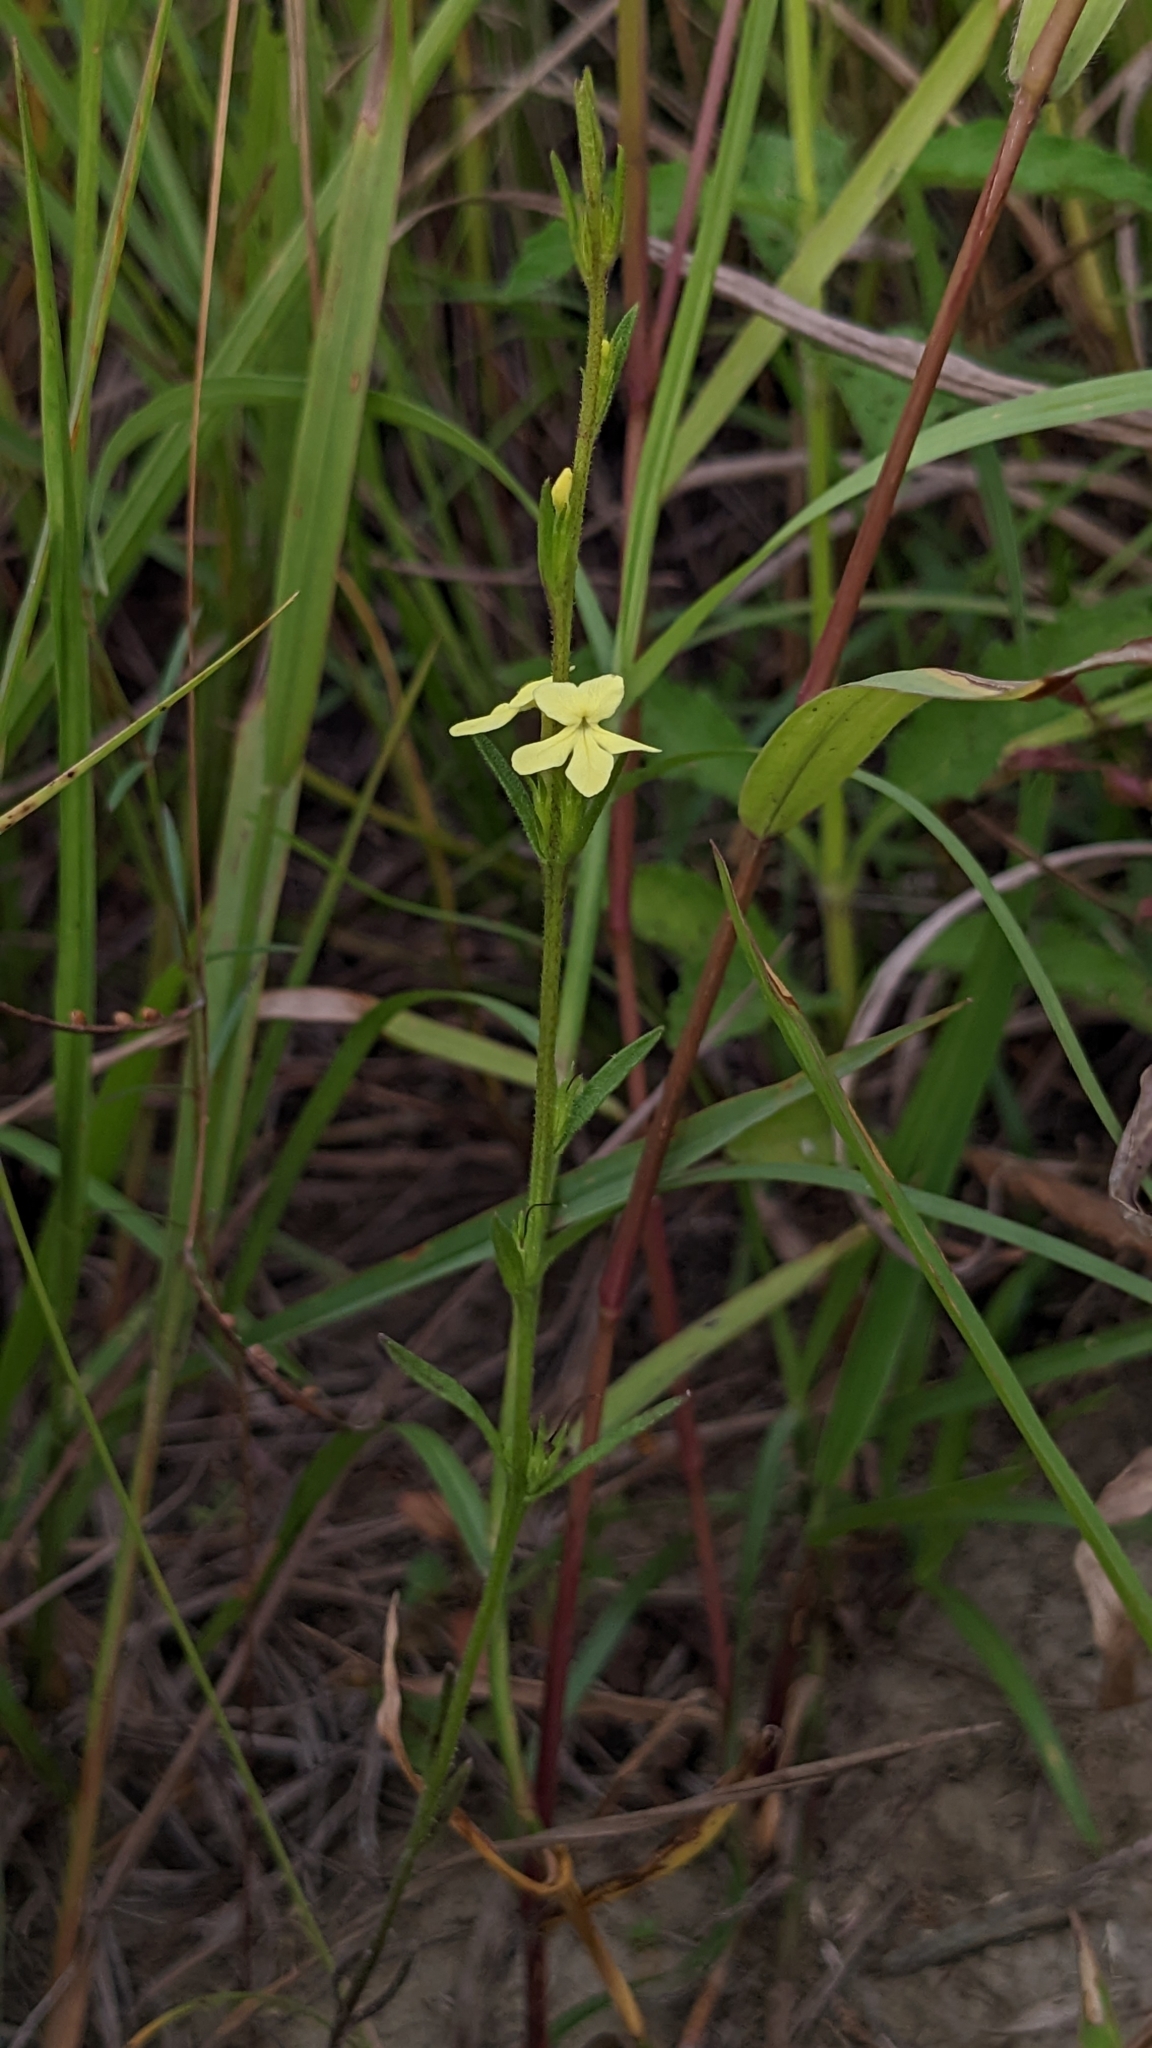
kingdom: Plantae
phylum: Tracheophyta
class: Magnoliopsida
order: Lamiales
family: Orobanchaceae
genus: Striga
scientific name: Striga asiatica
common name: Asiatic witchweed
